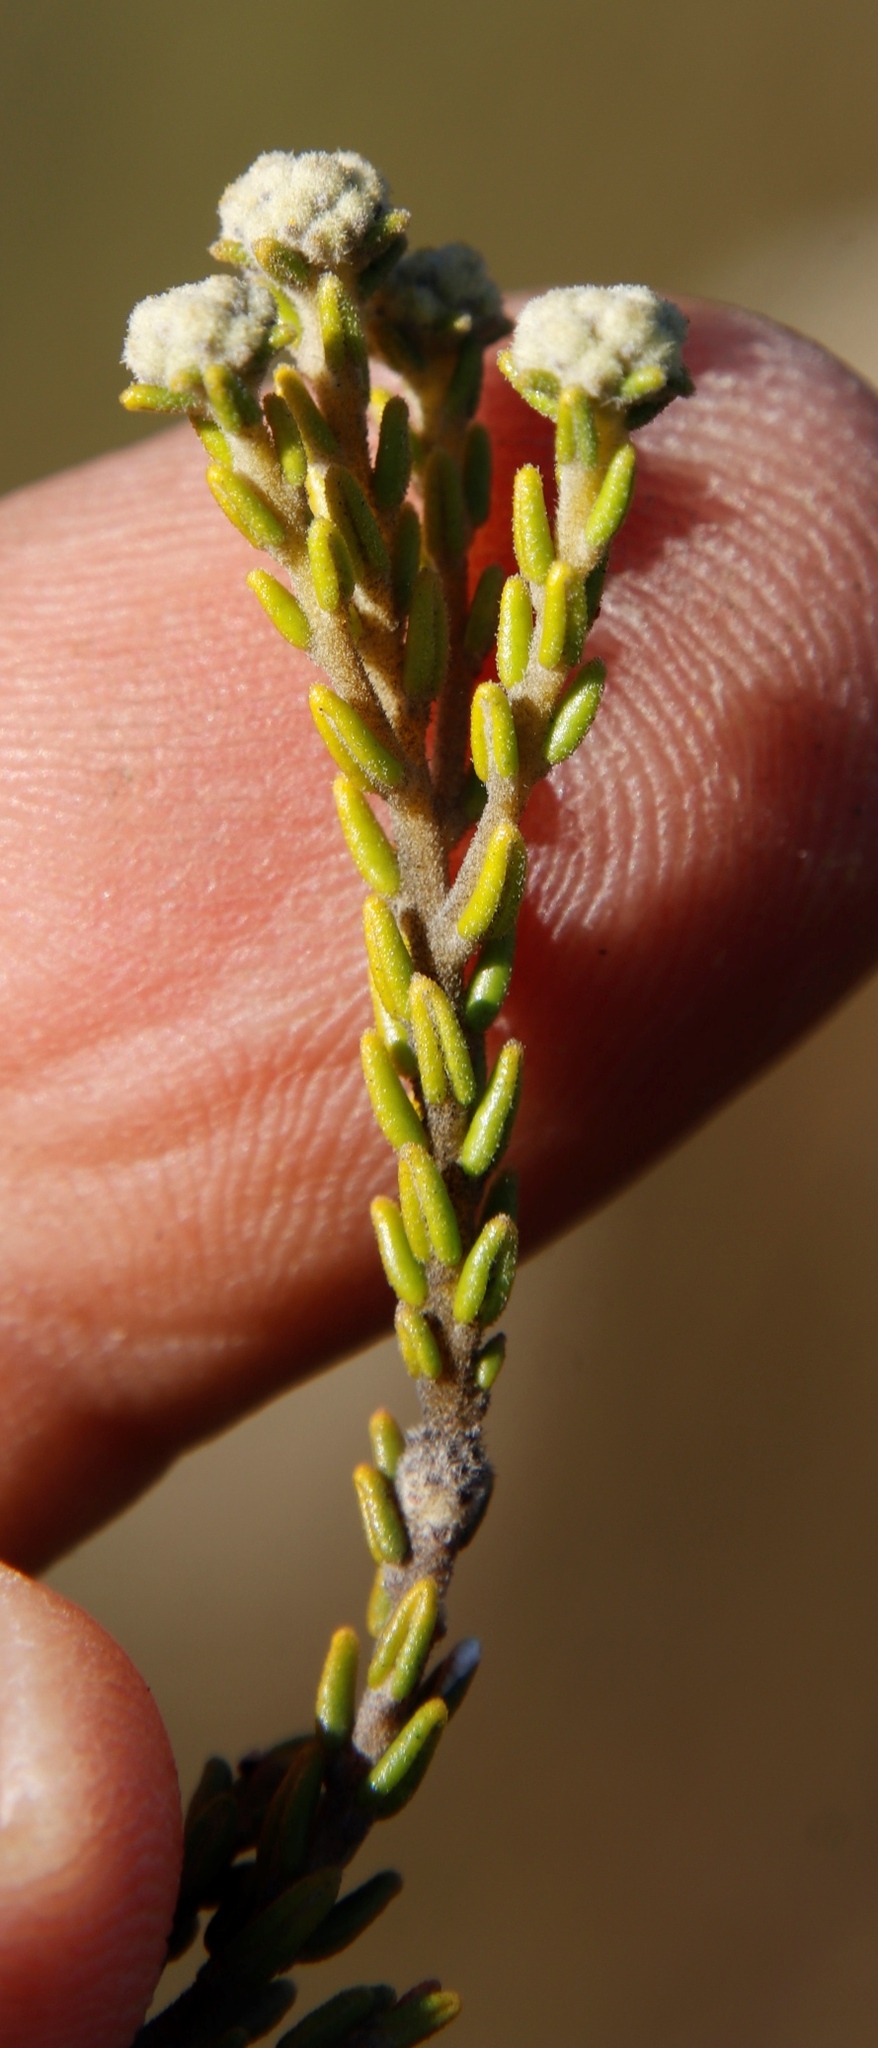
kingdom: Plantae
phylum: Tracheophyta
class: Magnoliopsida
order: Rosales
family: Rhamnaceae
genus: Phylica
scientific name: Phylica cephalantha
